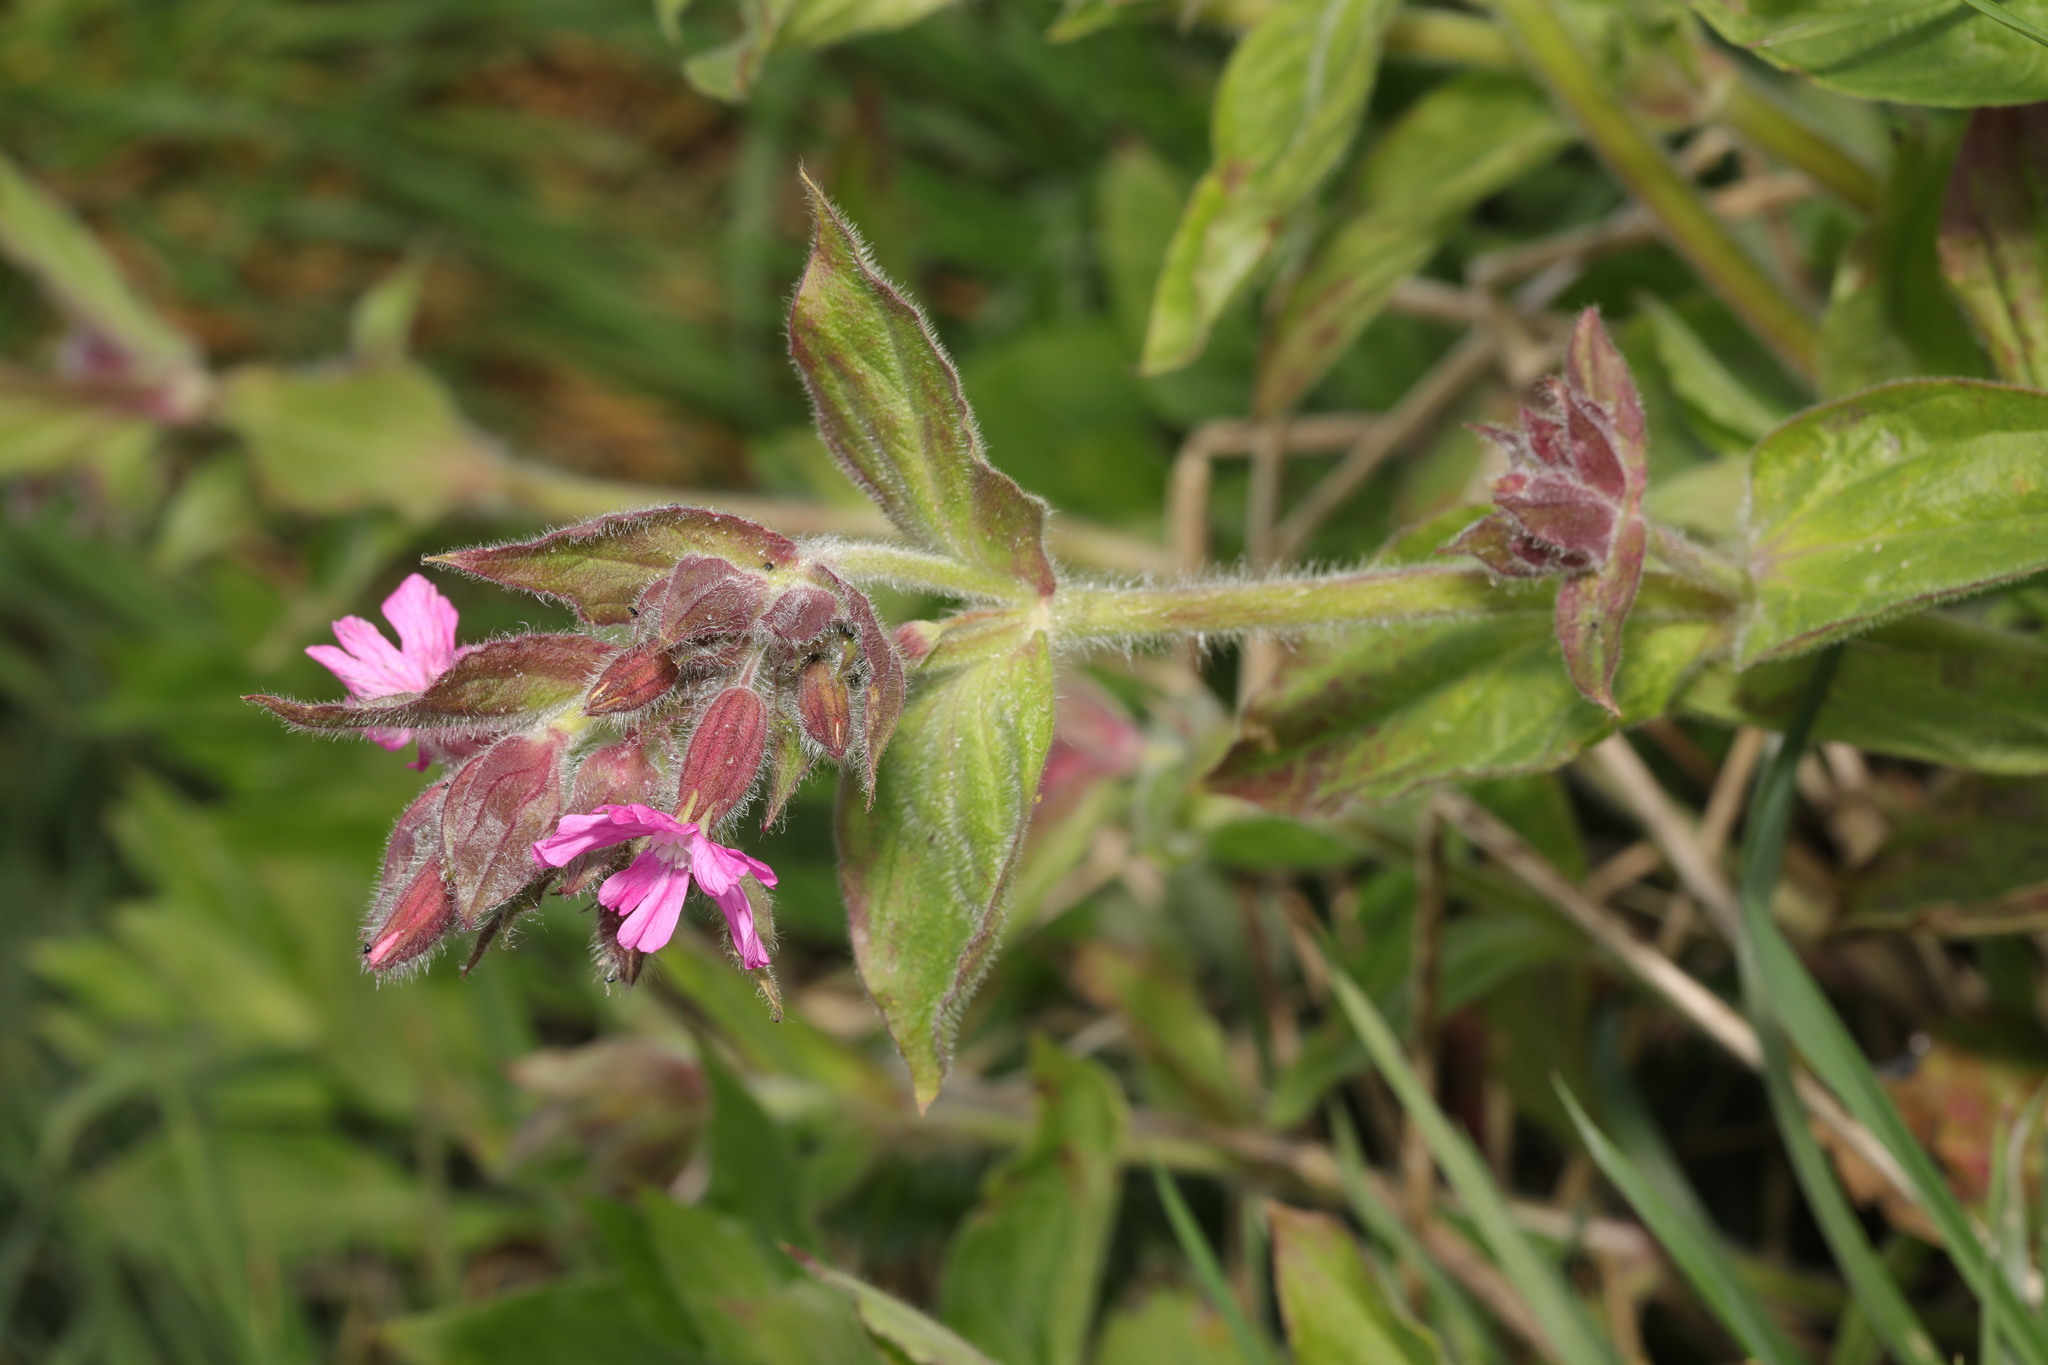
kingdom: Plantae
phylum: Tracheophyta
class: Magnoliopsida
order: Caryophyllales
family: Caryophyllaceae
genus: Silene
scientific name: Silene dioica
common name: Red campion
